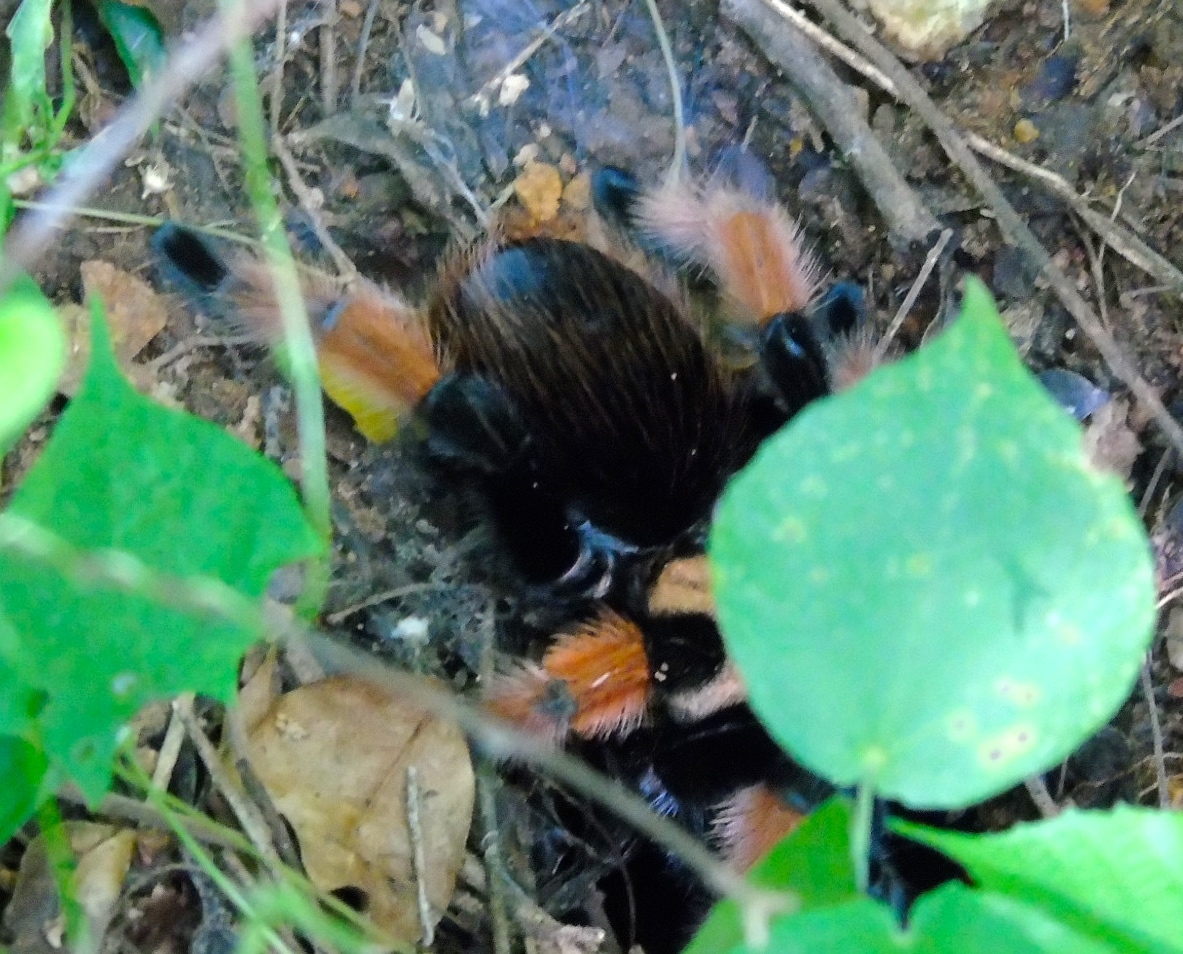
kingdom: Animalia
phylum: Arthropoda
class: Arachnida
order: Araneae
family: Theraphosidae
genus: Brachypelma
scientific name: Brachypelma emilia
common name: Mexican redleg
